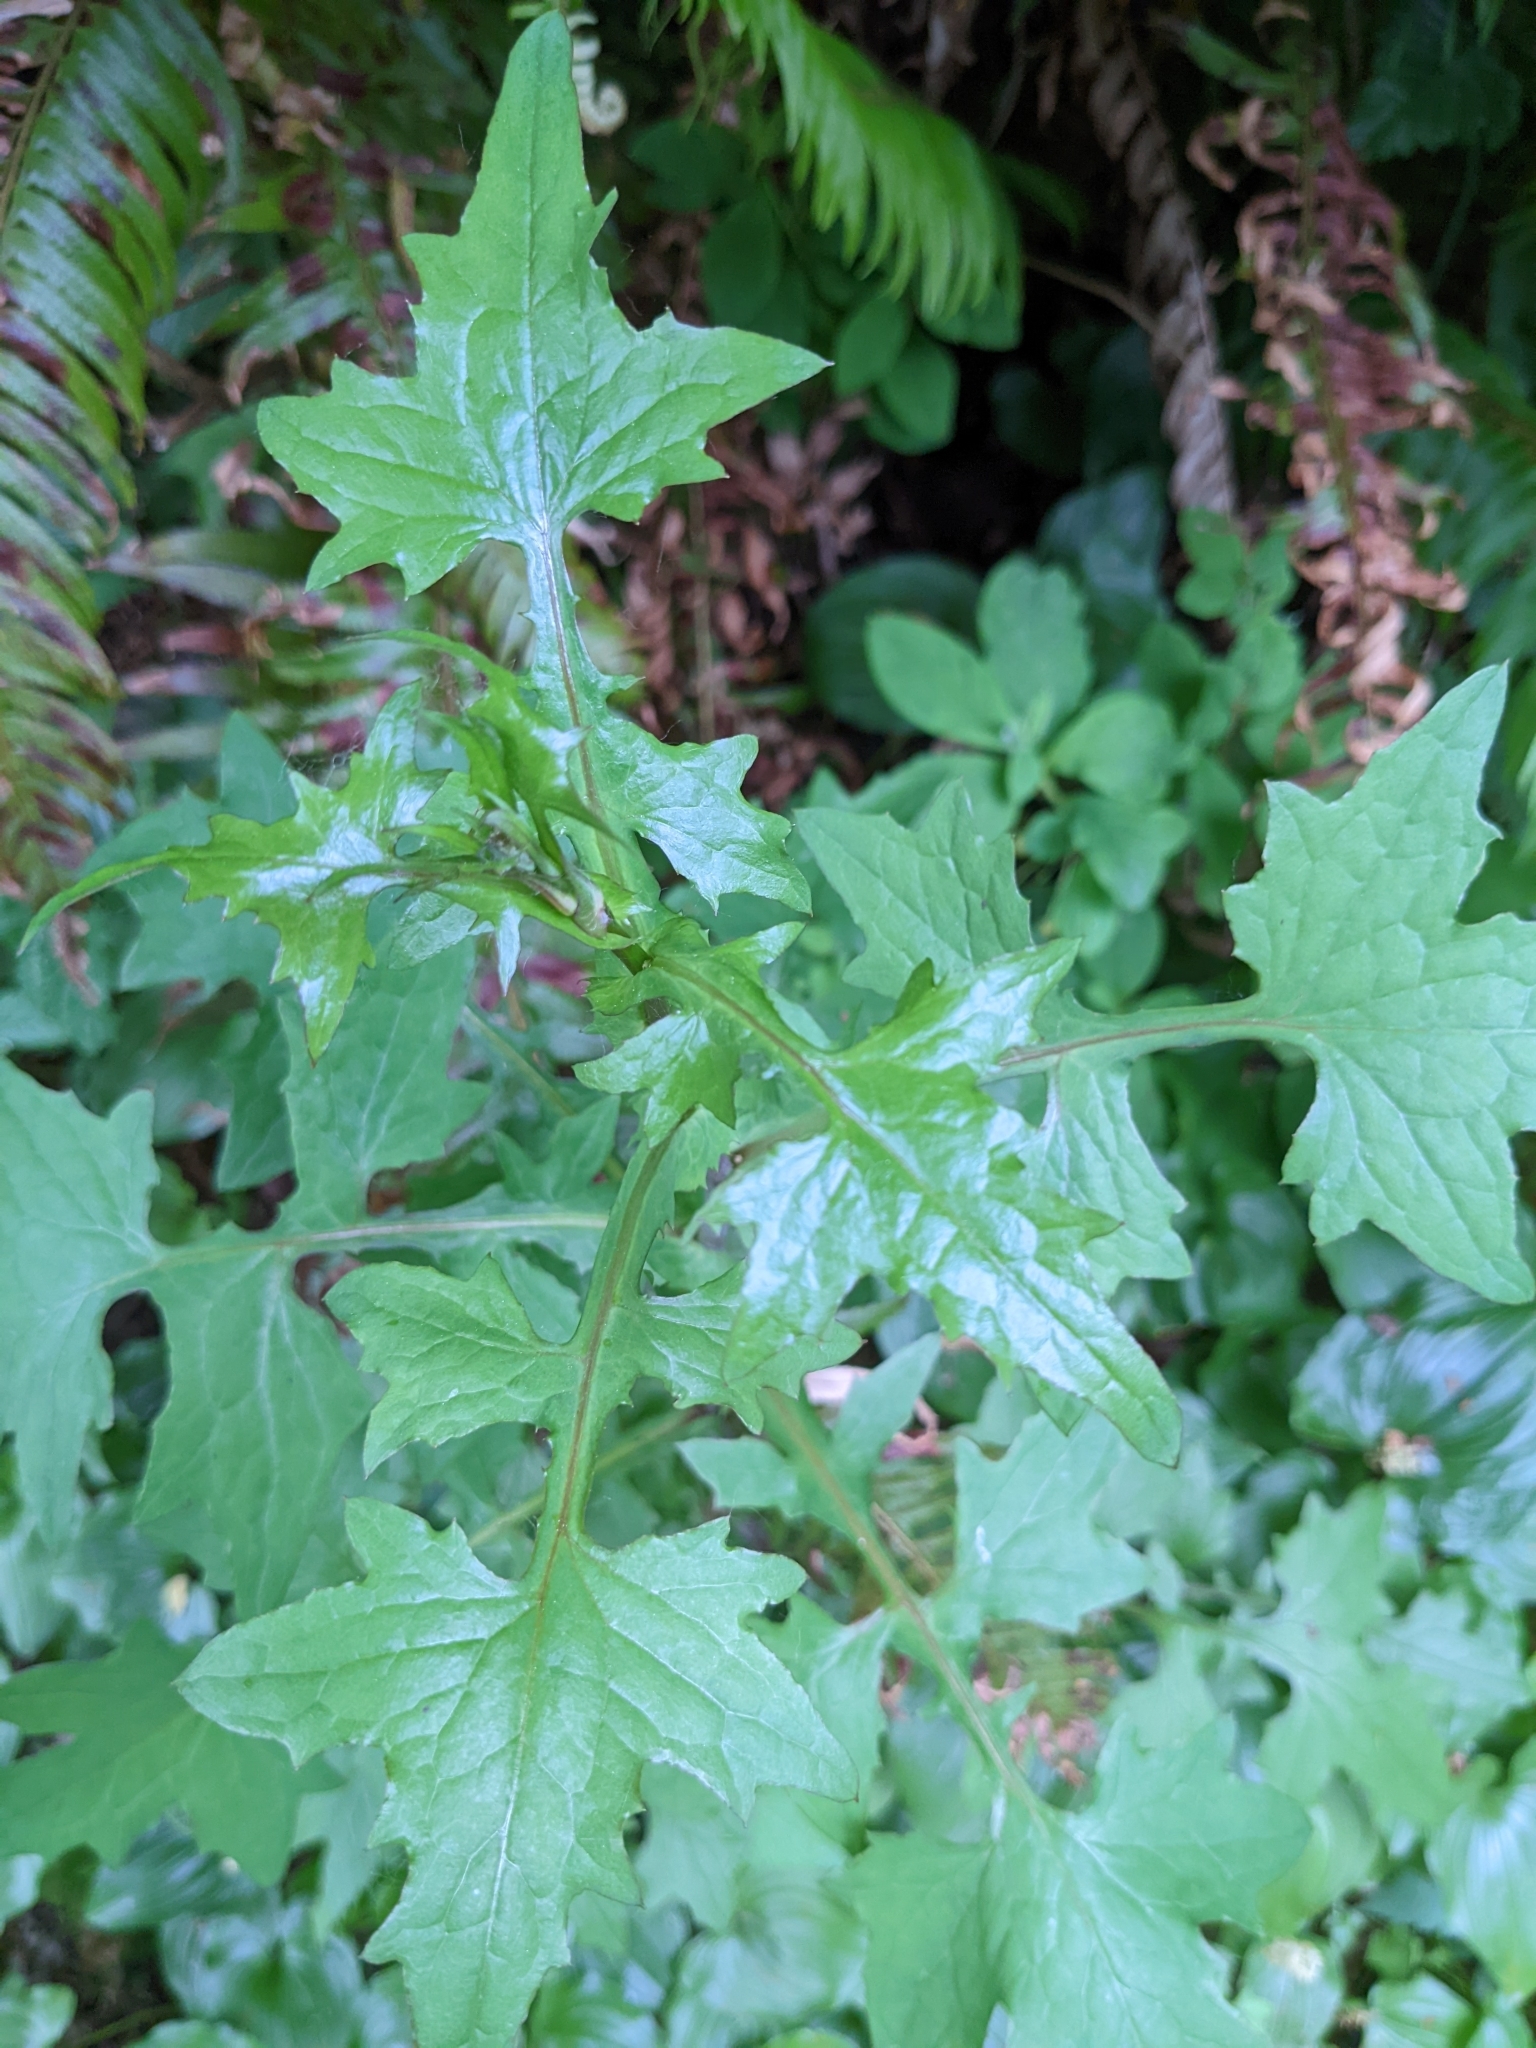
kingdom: Plantae
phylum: Tracheophyta
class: Magnoliopsida
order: Asterales
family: Asteraceae
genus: Mycelis
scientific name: Mycelis muralis
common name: Wall lettuce
